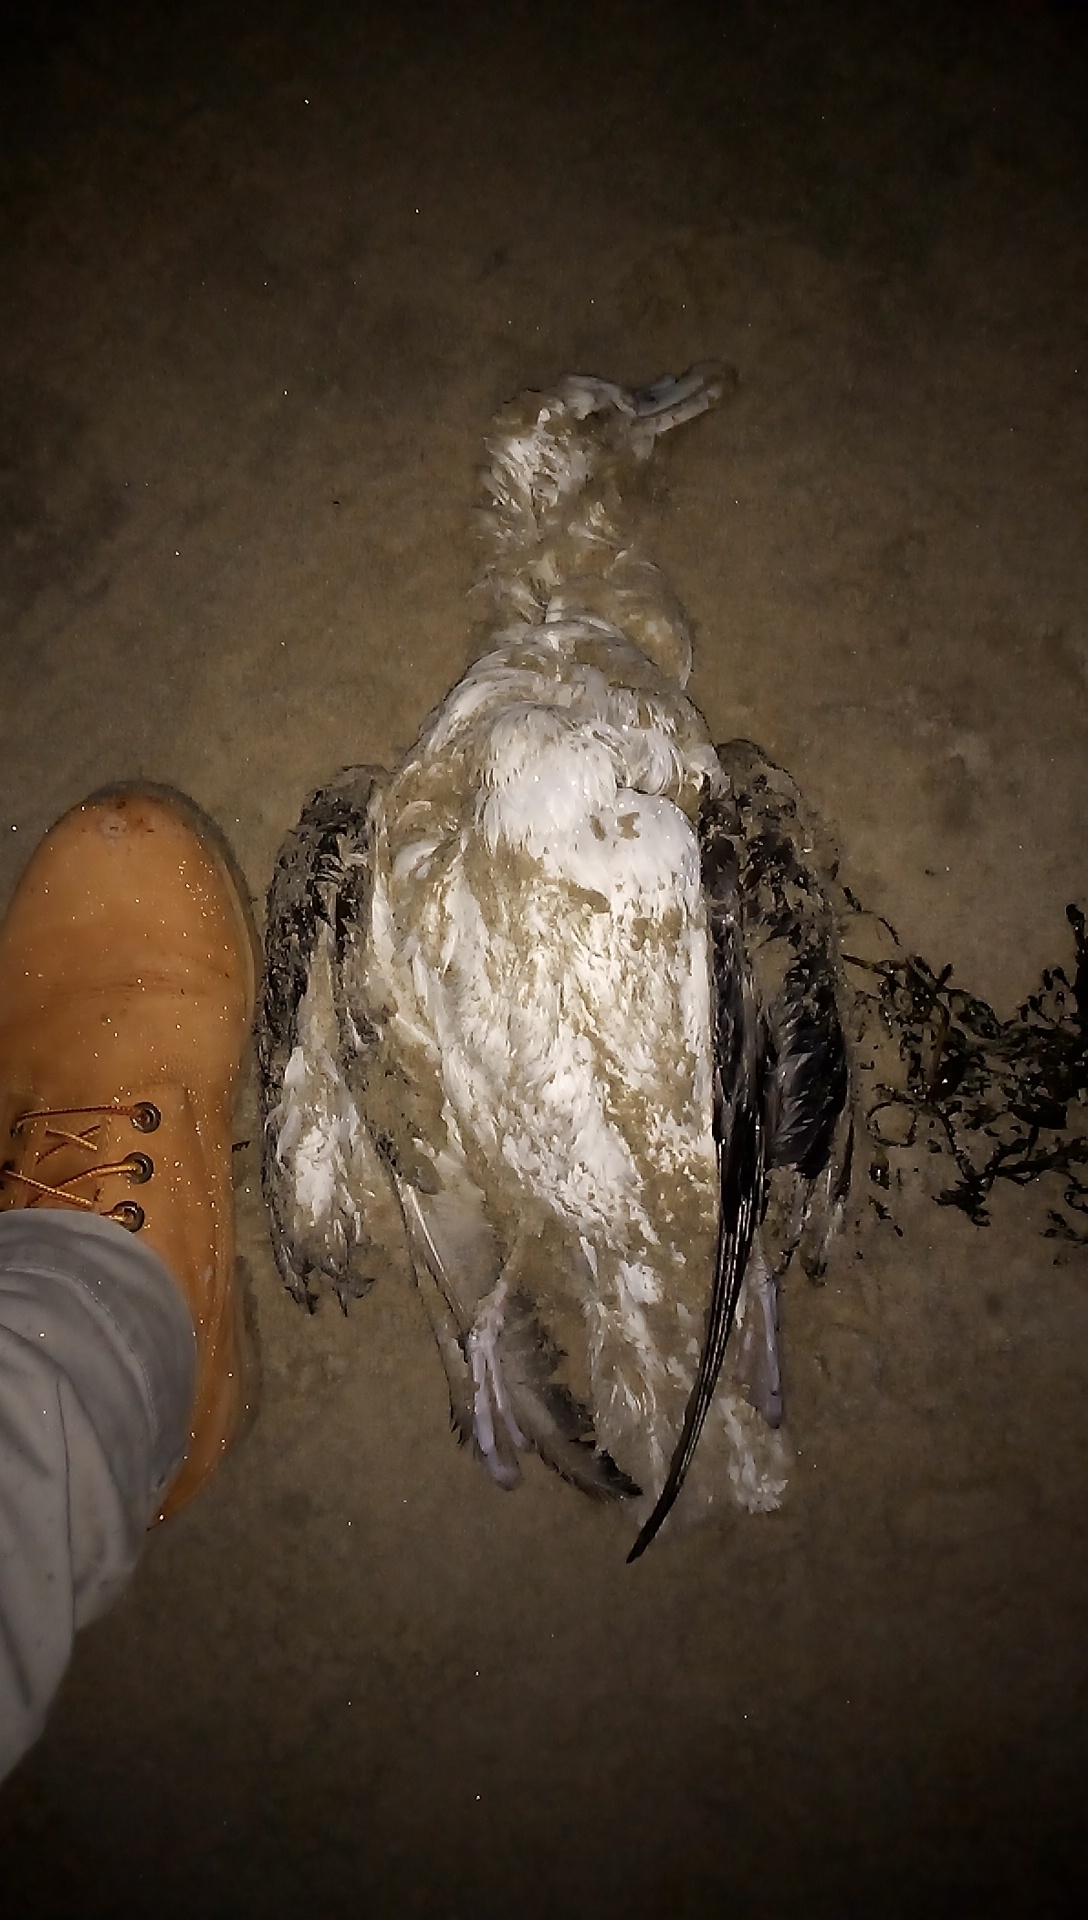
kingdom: Animalia
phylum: Chordata
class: Aves
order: Charadriiformes
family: Laridae
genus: Larus
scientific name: Larus argentatus
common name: Herring gull
